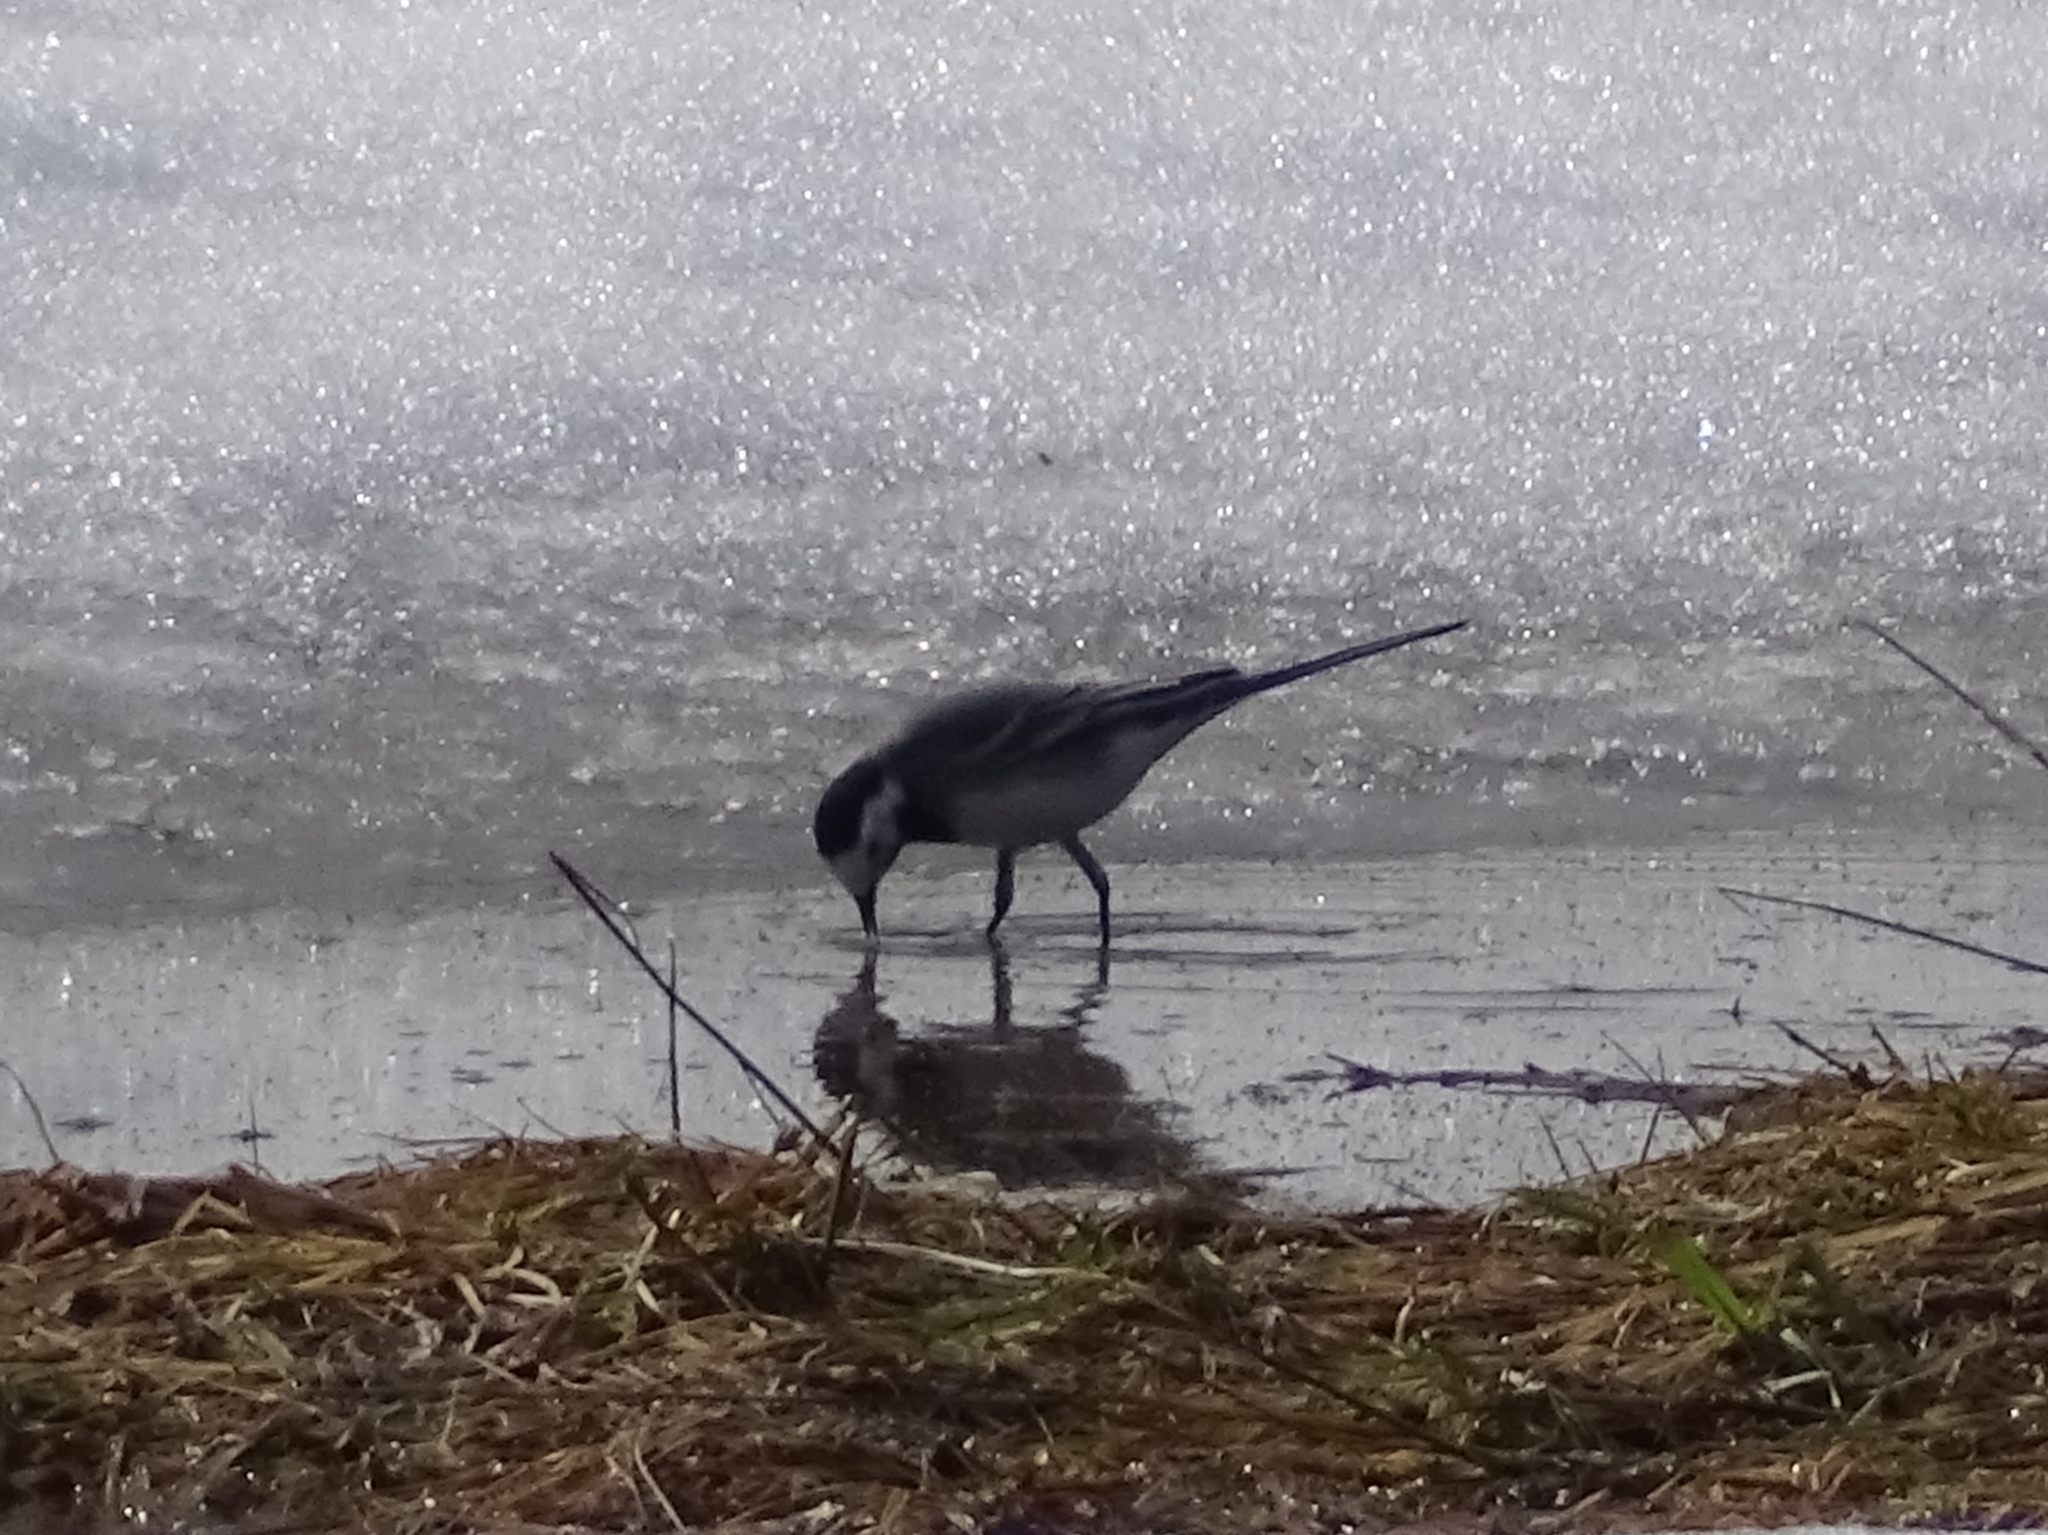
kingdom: Animalia
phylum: Chordata
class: Aves
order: Passeriformes
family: Motacillidae
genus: Motacilla
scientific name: Motacilla alba
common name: White wagtail
